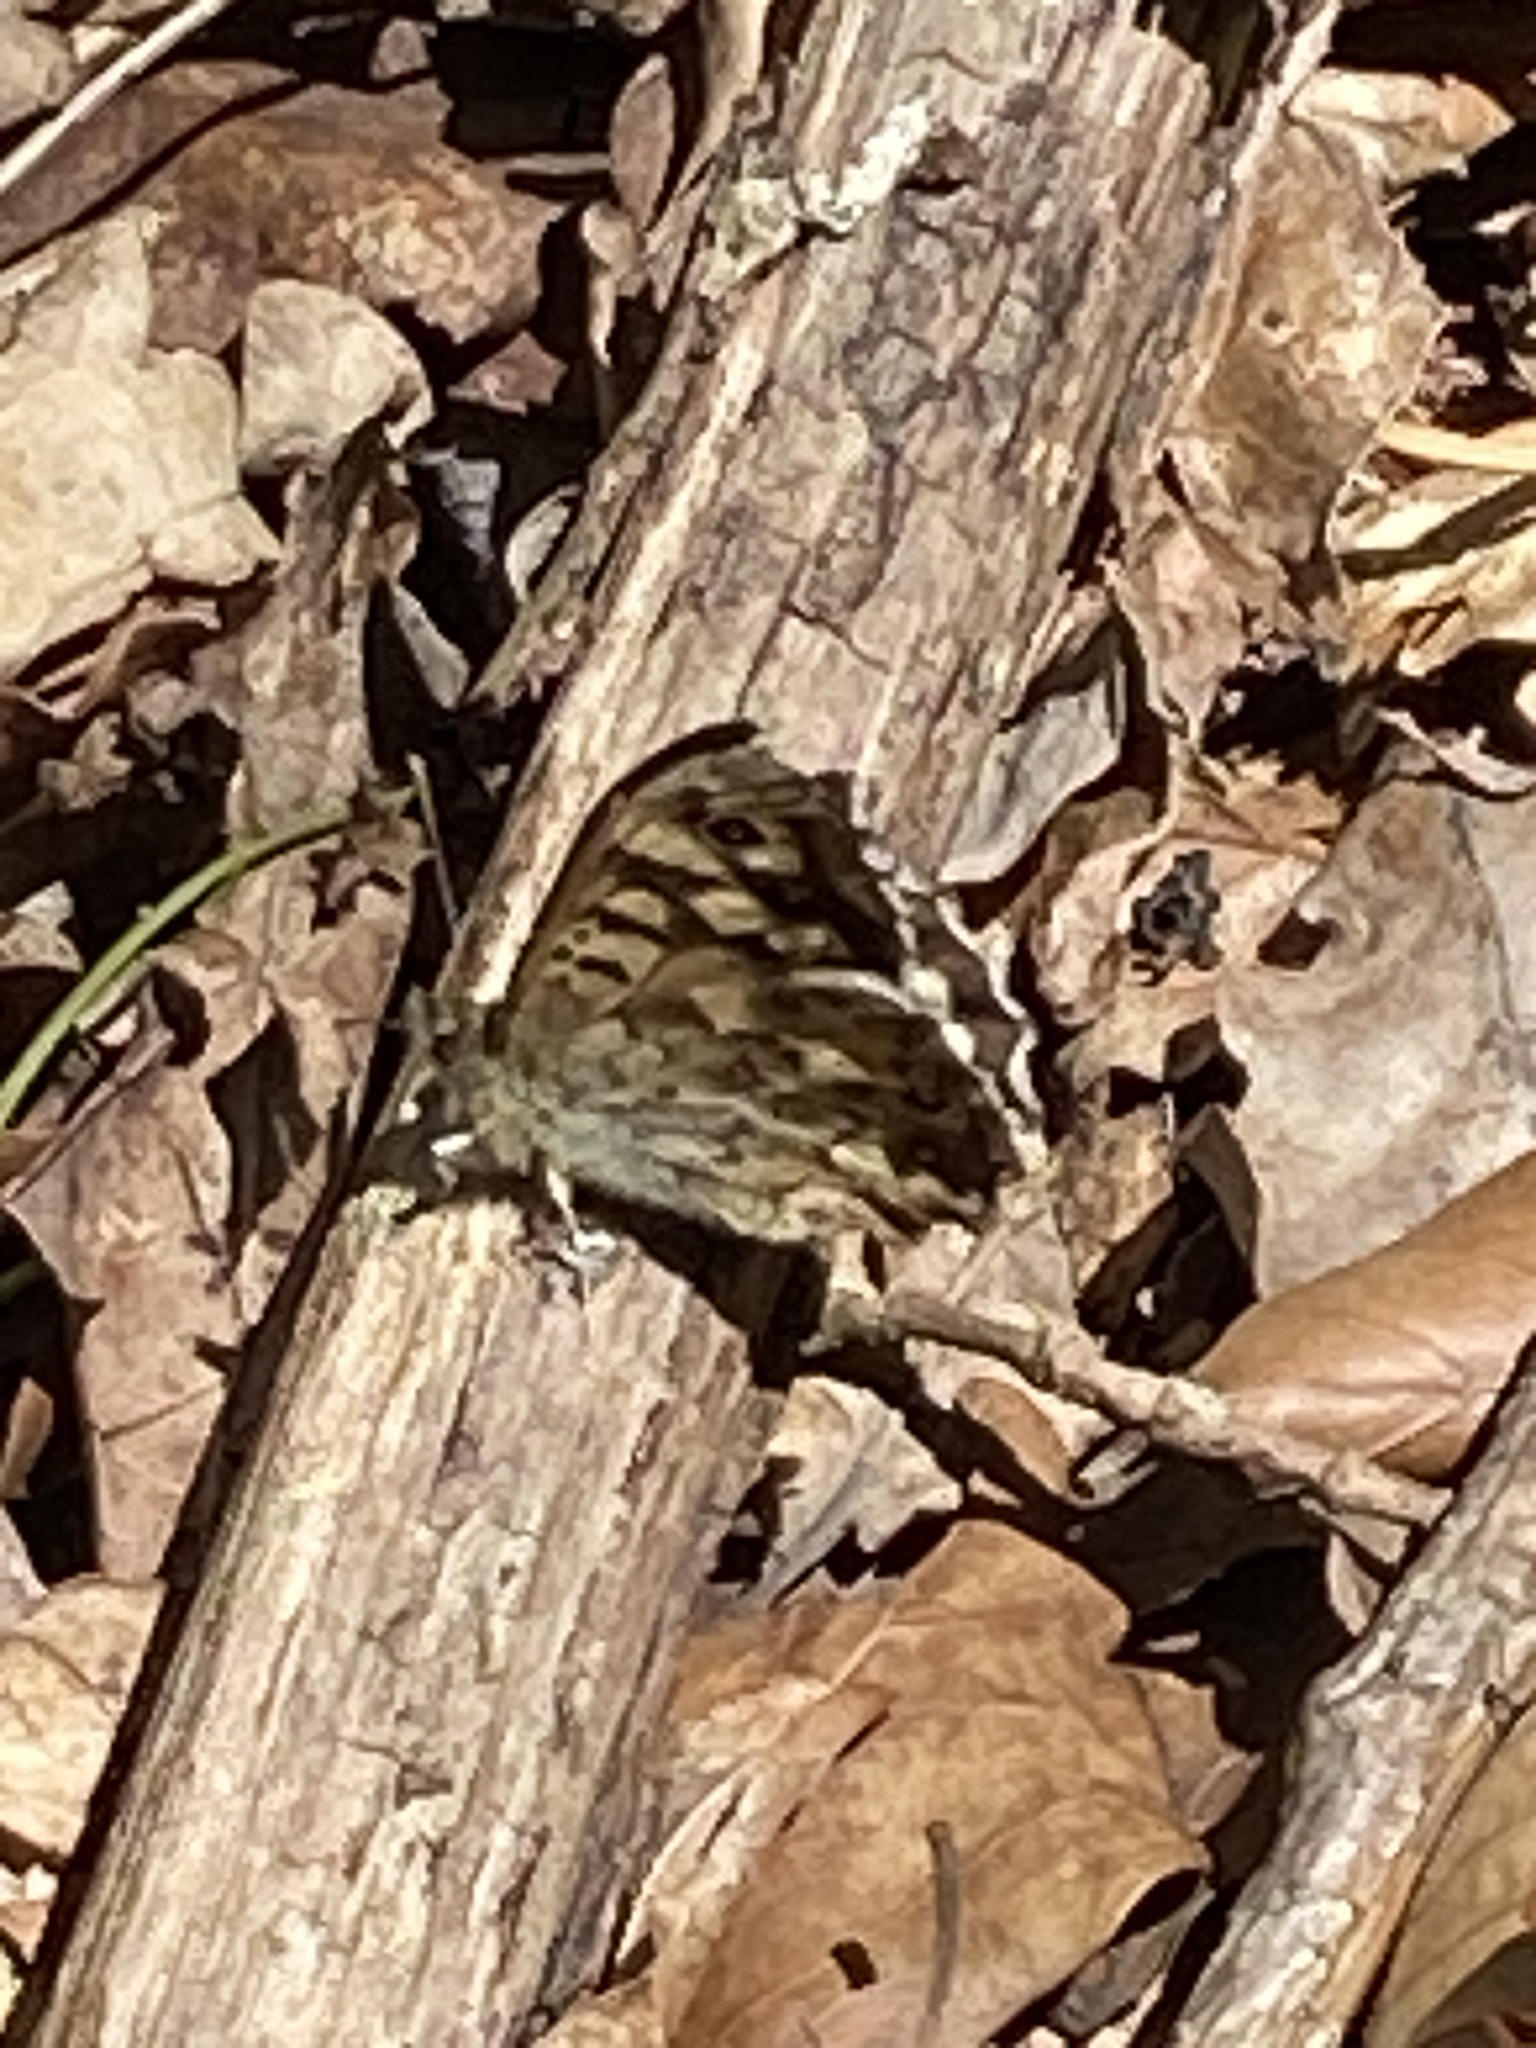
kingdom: Animalia
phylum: Arthropoda
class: Insecta
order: Lepidoptera
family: Nymphalidae
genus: Pararge
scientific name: Pararge aegeria
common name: Speckled wood
